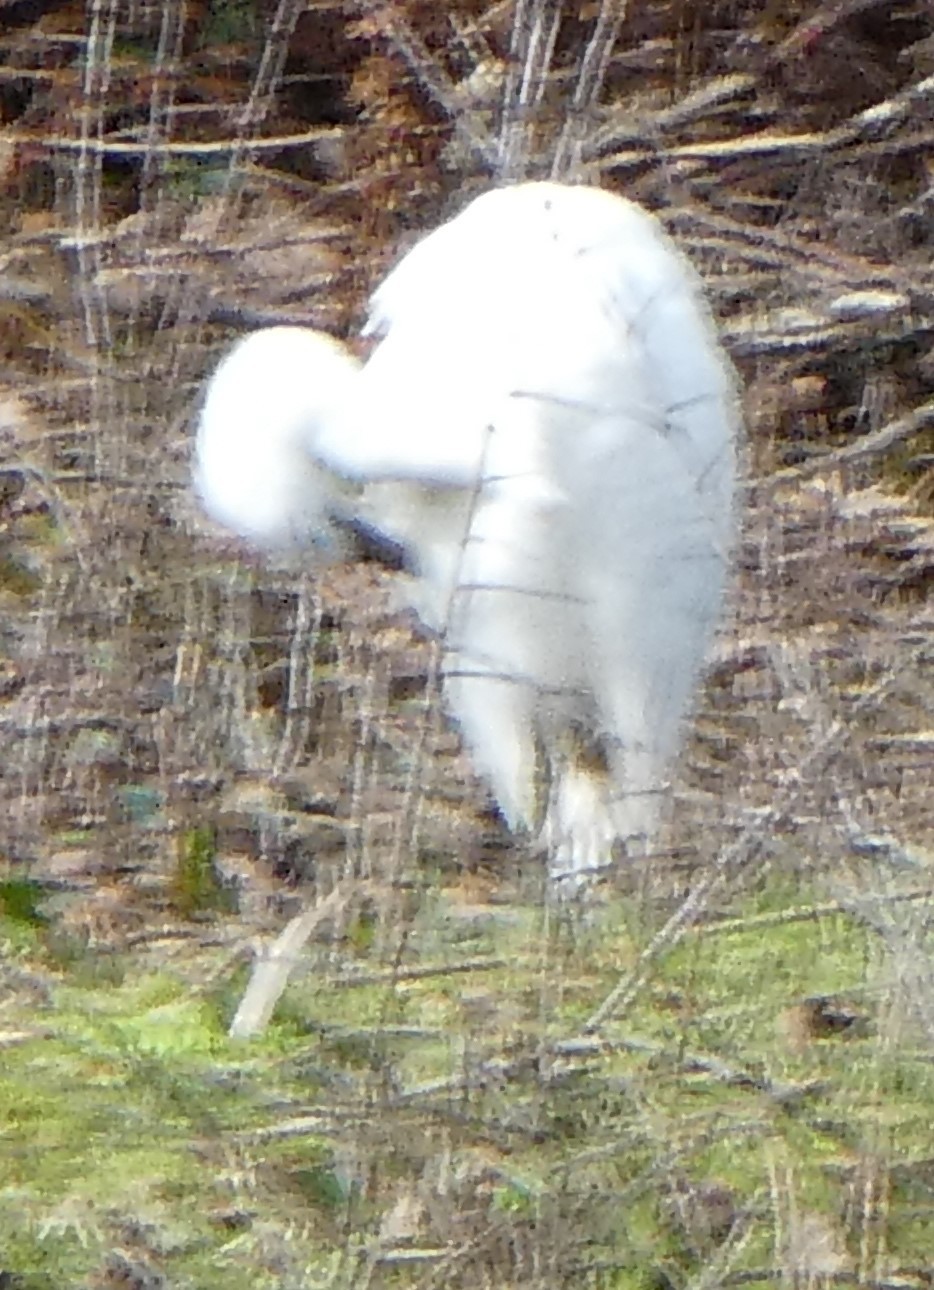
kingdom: Animalia
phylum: Chordata
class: Aves
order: Pelecaniformes
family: Ardeidae
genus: Egretta
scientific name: Egretta garzetta
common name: Little egret
